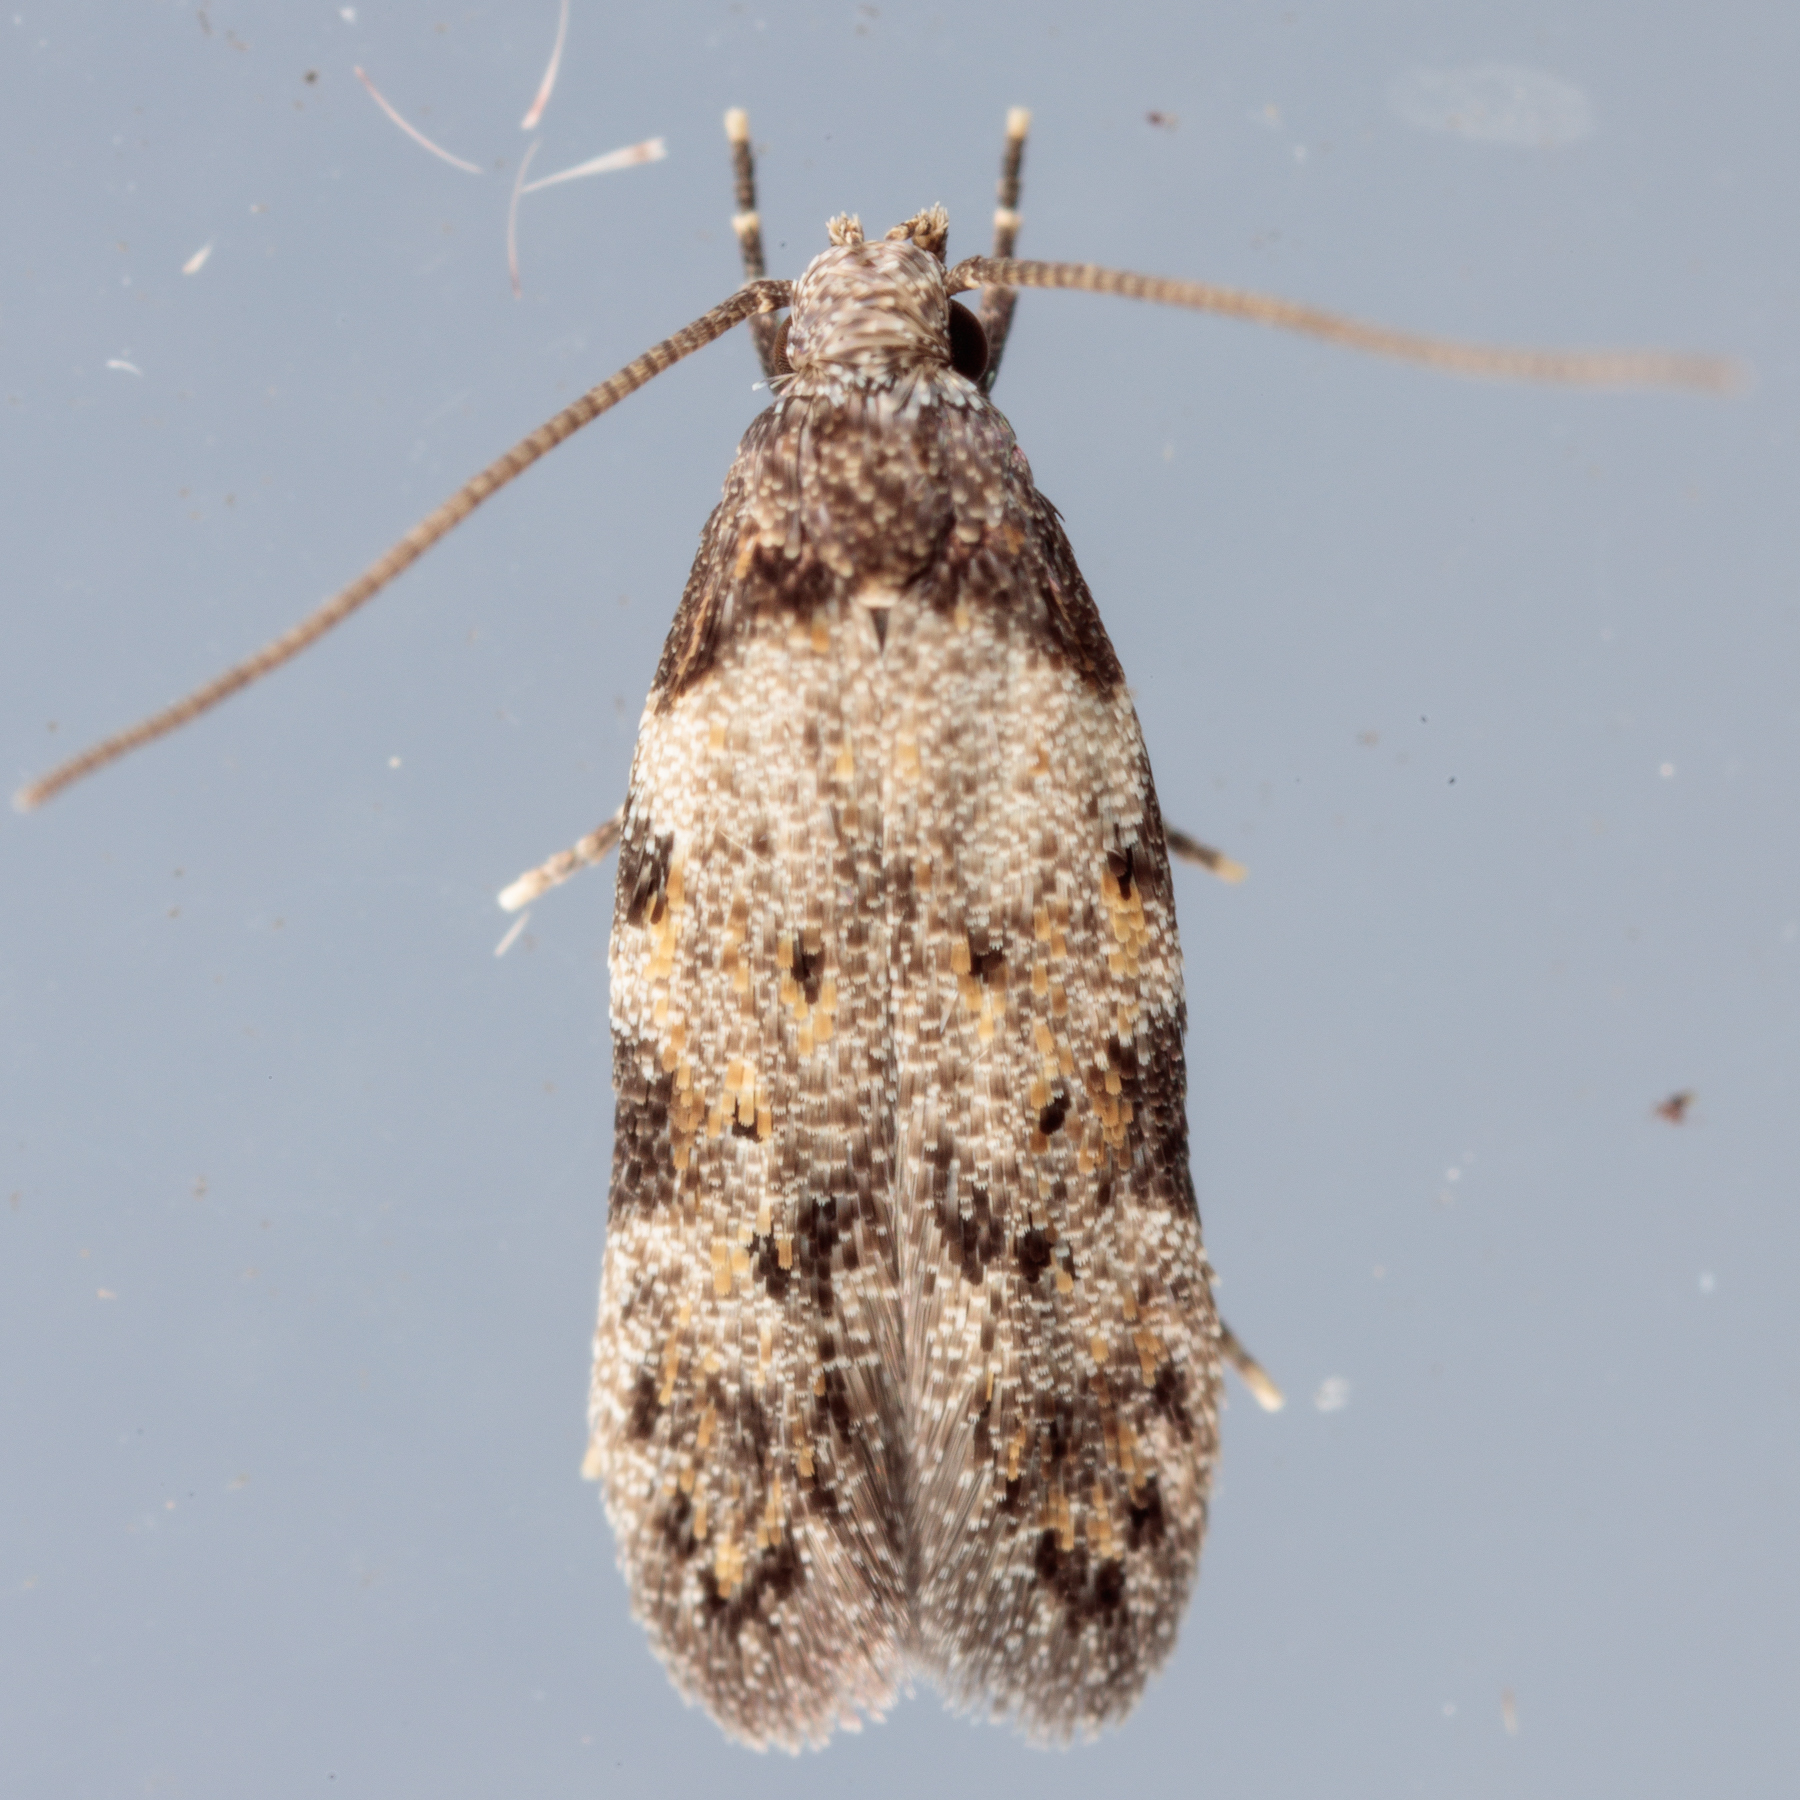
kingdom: Animalia
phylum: Arthropoda
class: Insecta
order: Lepidoptera
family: Autostichidae
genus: Taygete
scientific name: Taygete attributella
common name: Triangle-marked twirler moth
